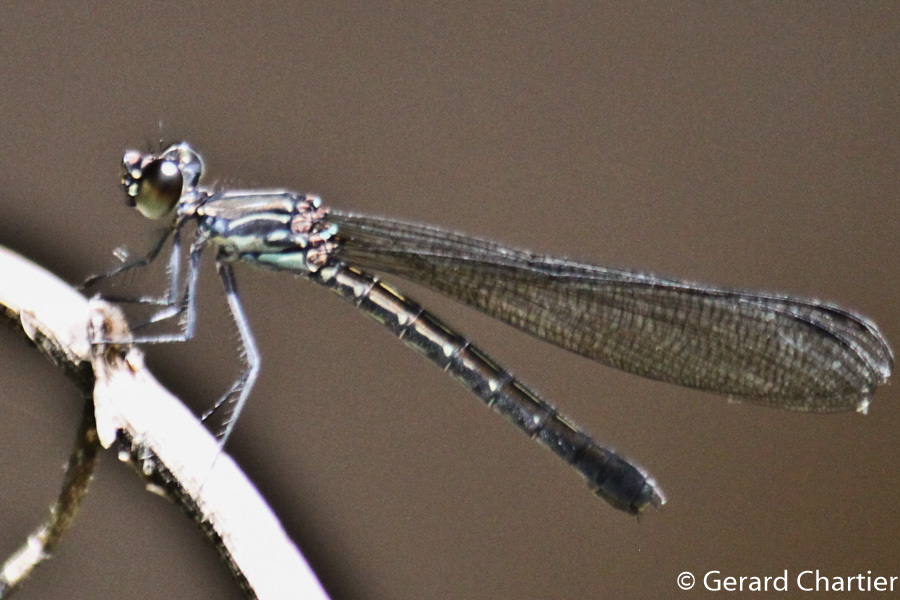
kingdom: Animalia
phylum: Arthropoda
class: Insecta
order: Odonata
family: Chlorocyphidae
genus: Heliocypha
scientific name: Heliocypha perforata
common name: Common blue jewel
